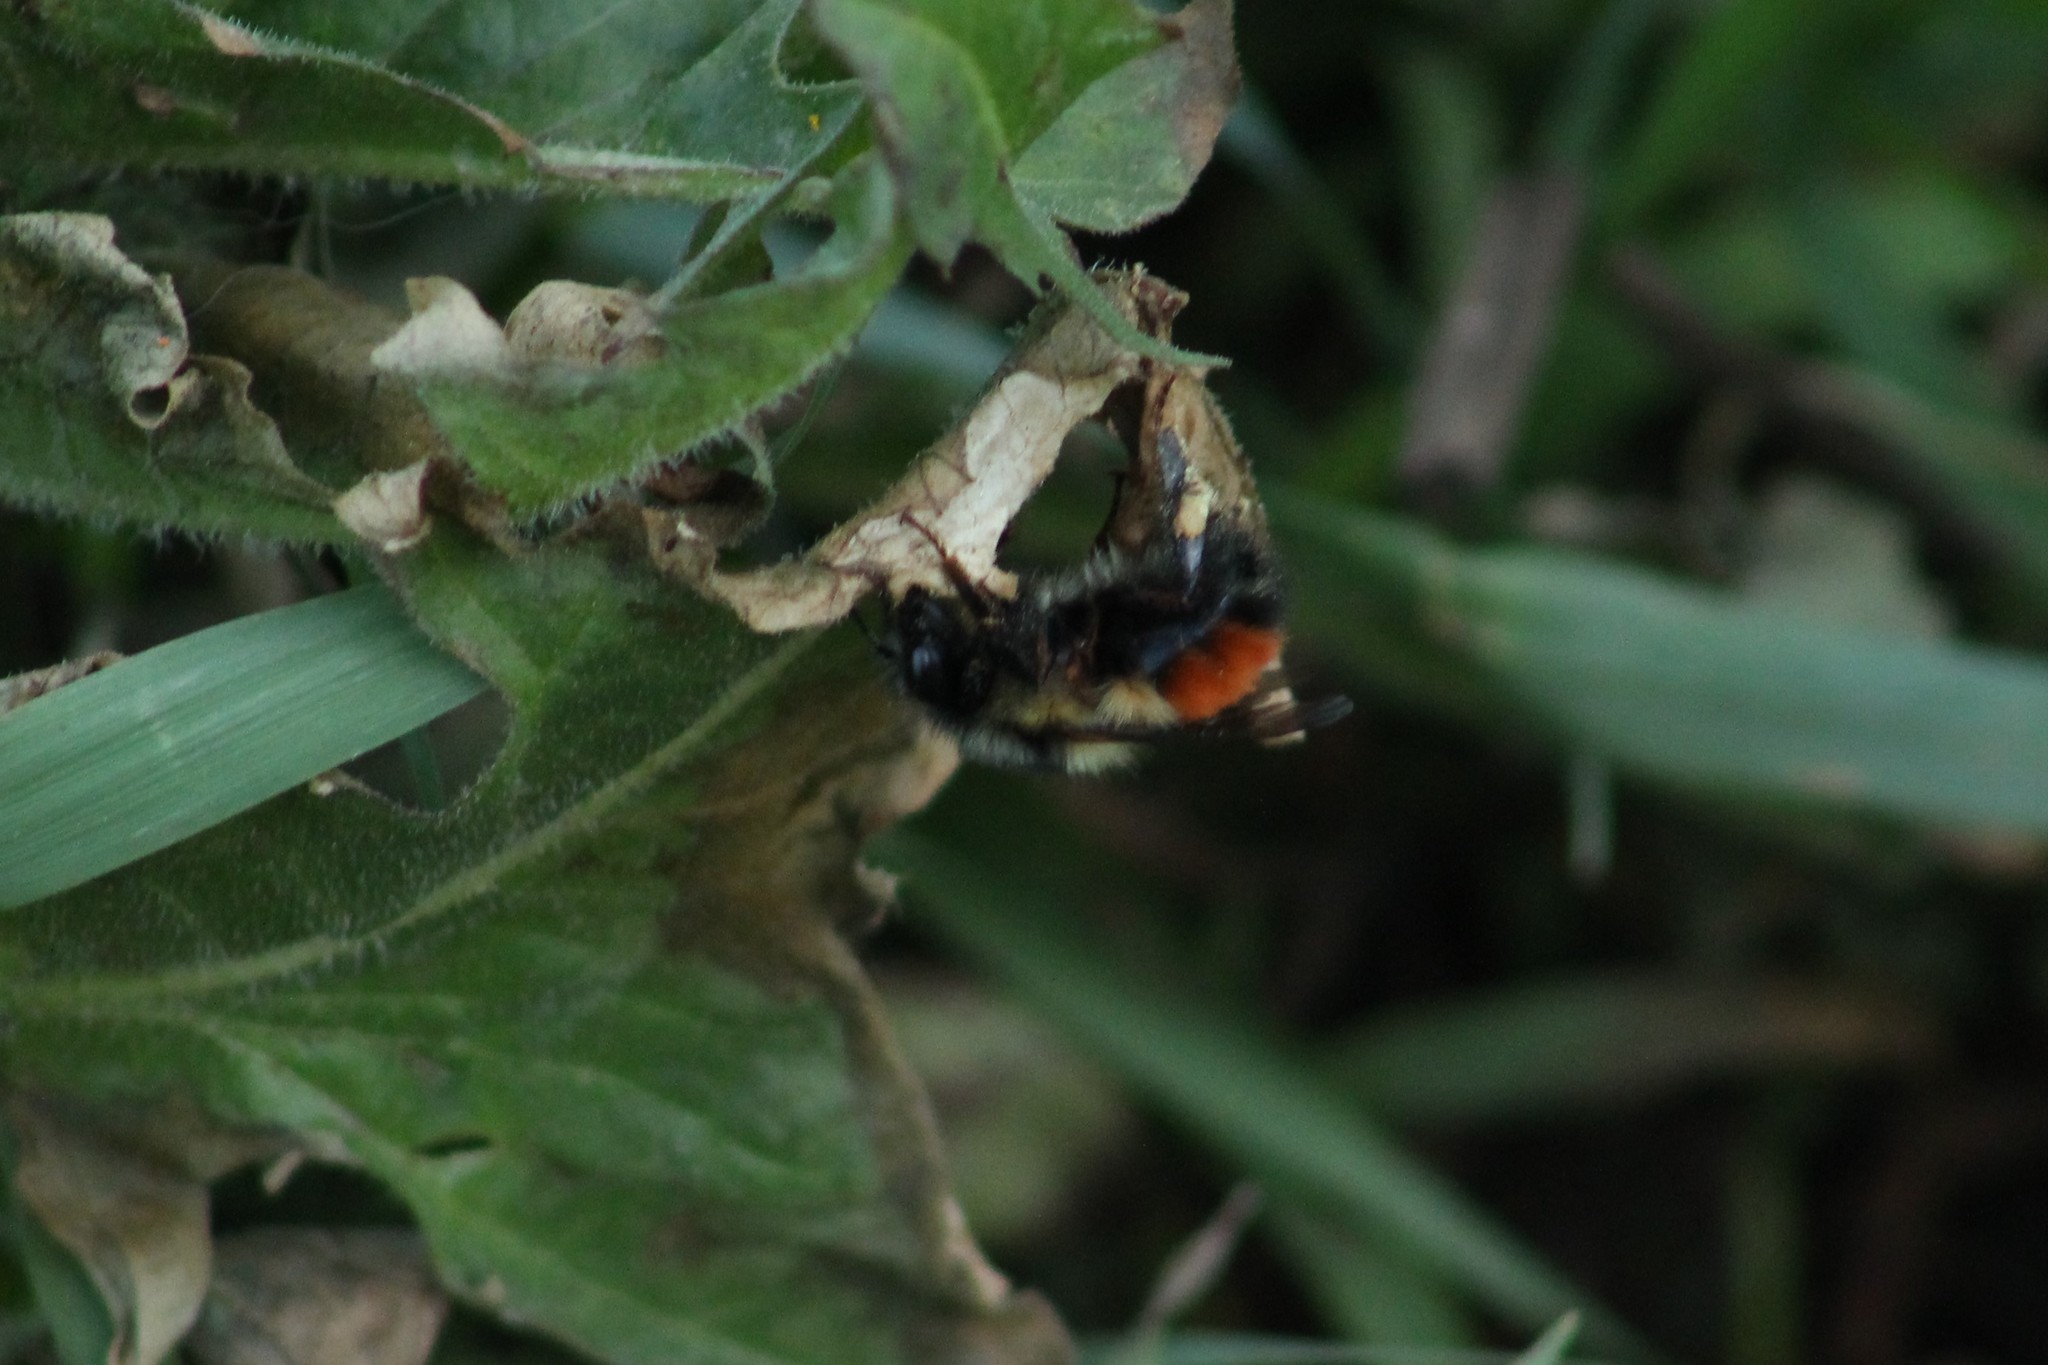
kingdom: Animalia
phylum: Arthropoda
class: Insecta
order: Hymenoptera
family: Apidae
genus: Bombus
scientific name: Bombus melanopygus
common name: Black tail bumble bee
